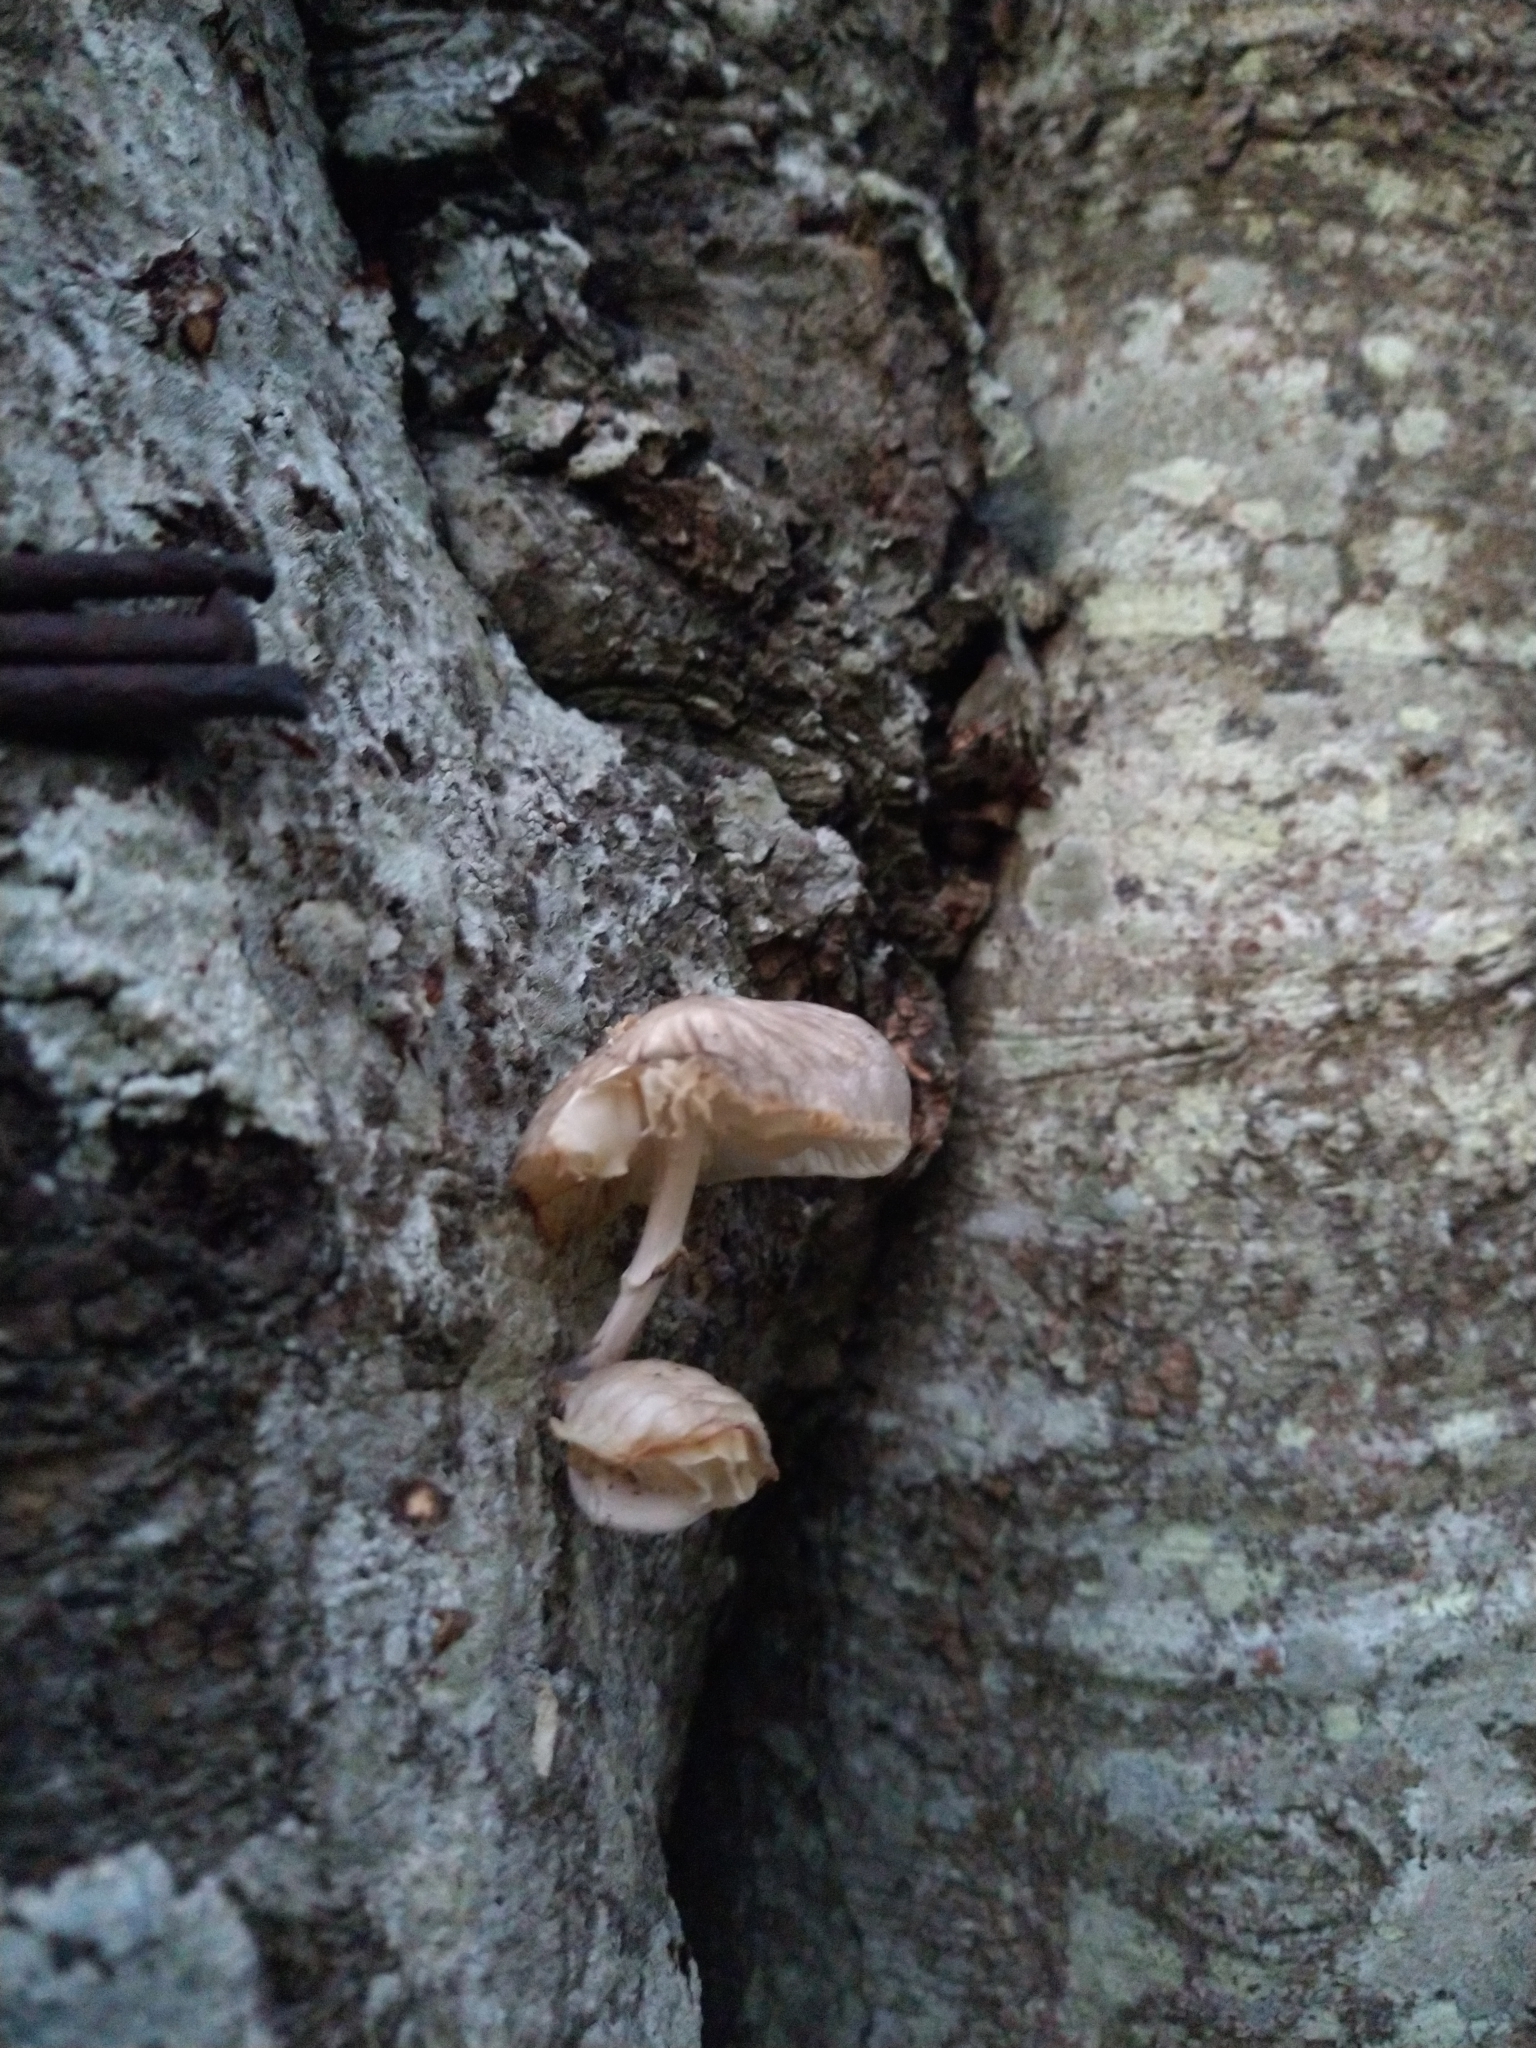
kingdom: Fungi
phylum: Basidiomycota
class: Agaricomycetes
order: Agaricales
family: Physalacriaceae
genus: Mucidula
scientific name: Mucidula mucida
